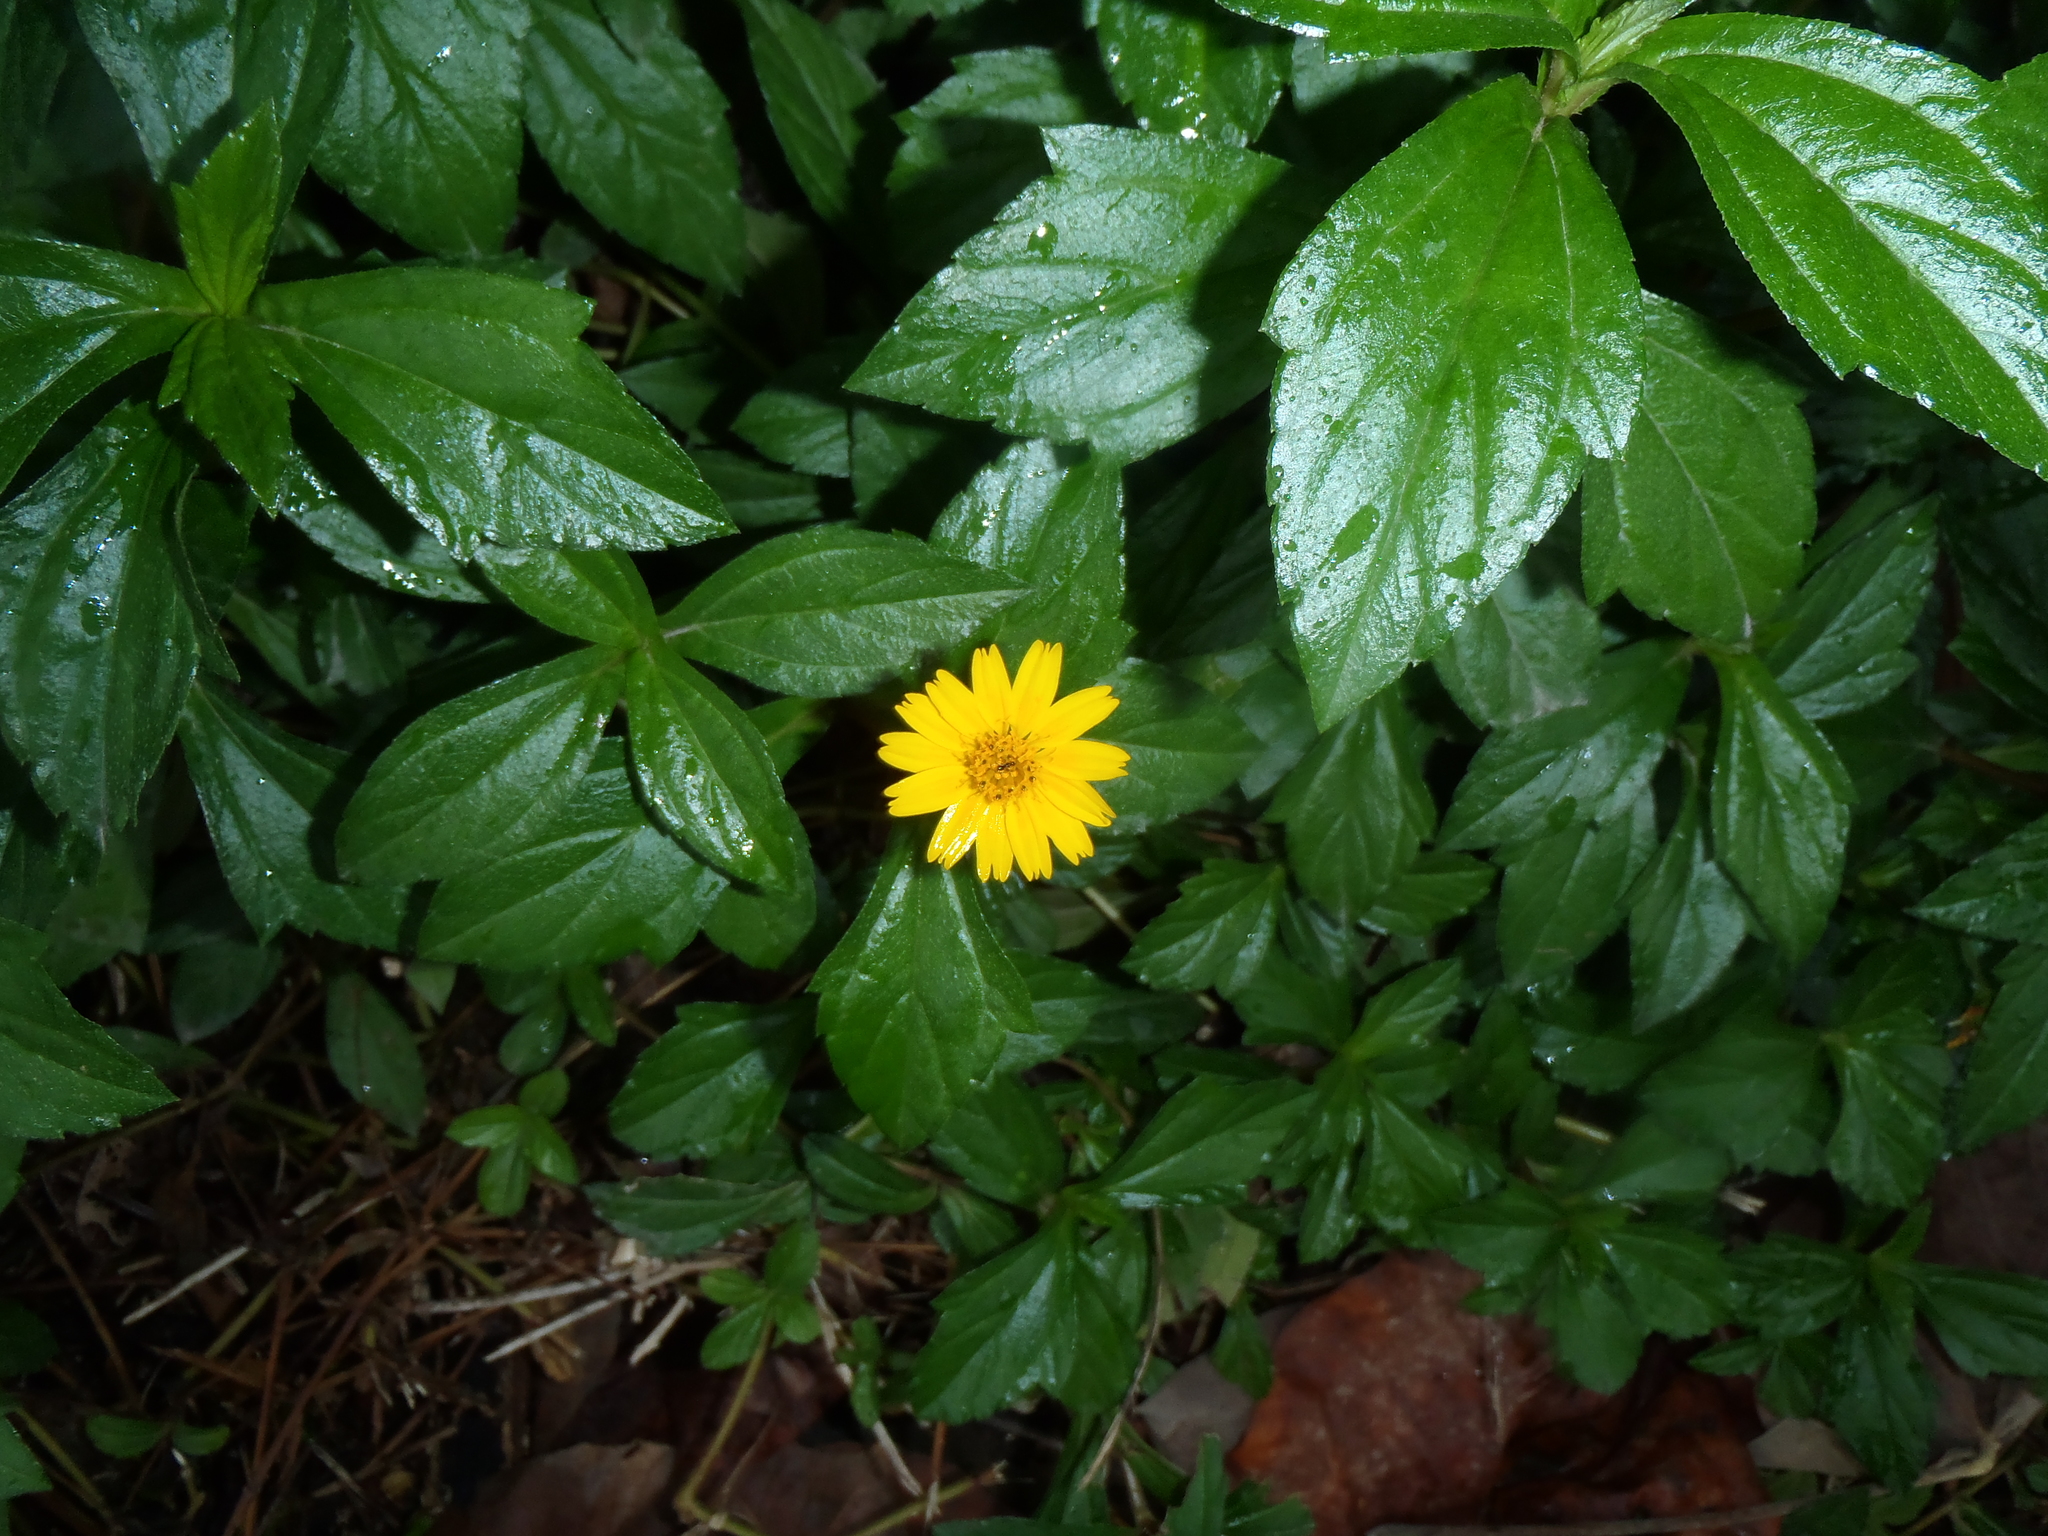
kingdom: Plantae
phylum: Tracheophyta
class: Magnoliopsida
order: Asterales
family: Asteraceae
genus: Sphagneticola
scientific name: Sphagneticola trilobata
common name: Bay biscayne creeping-oxeye
